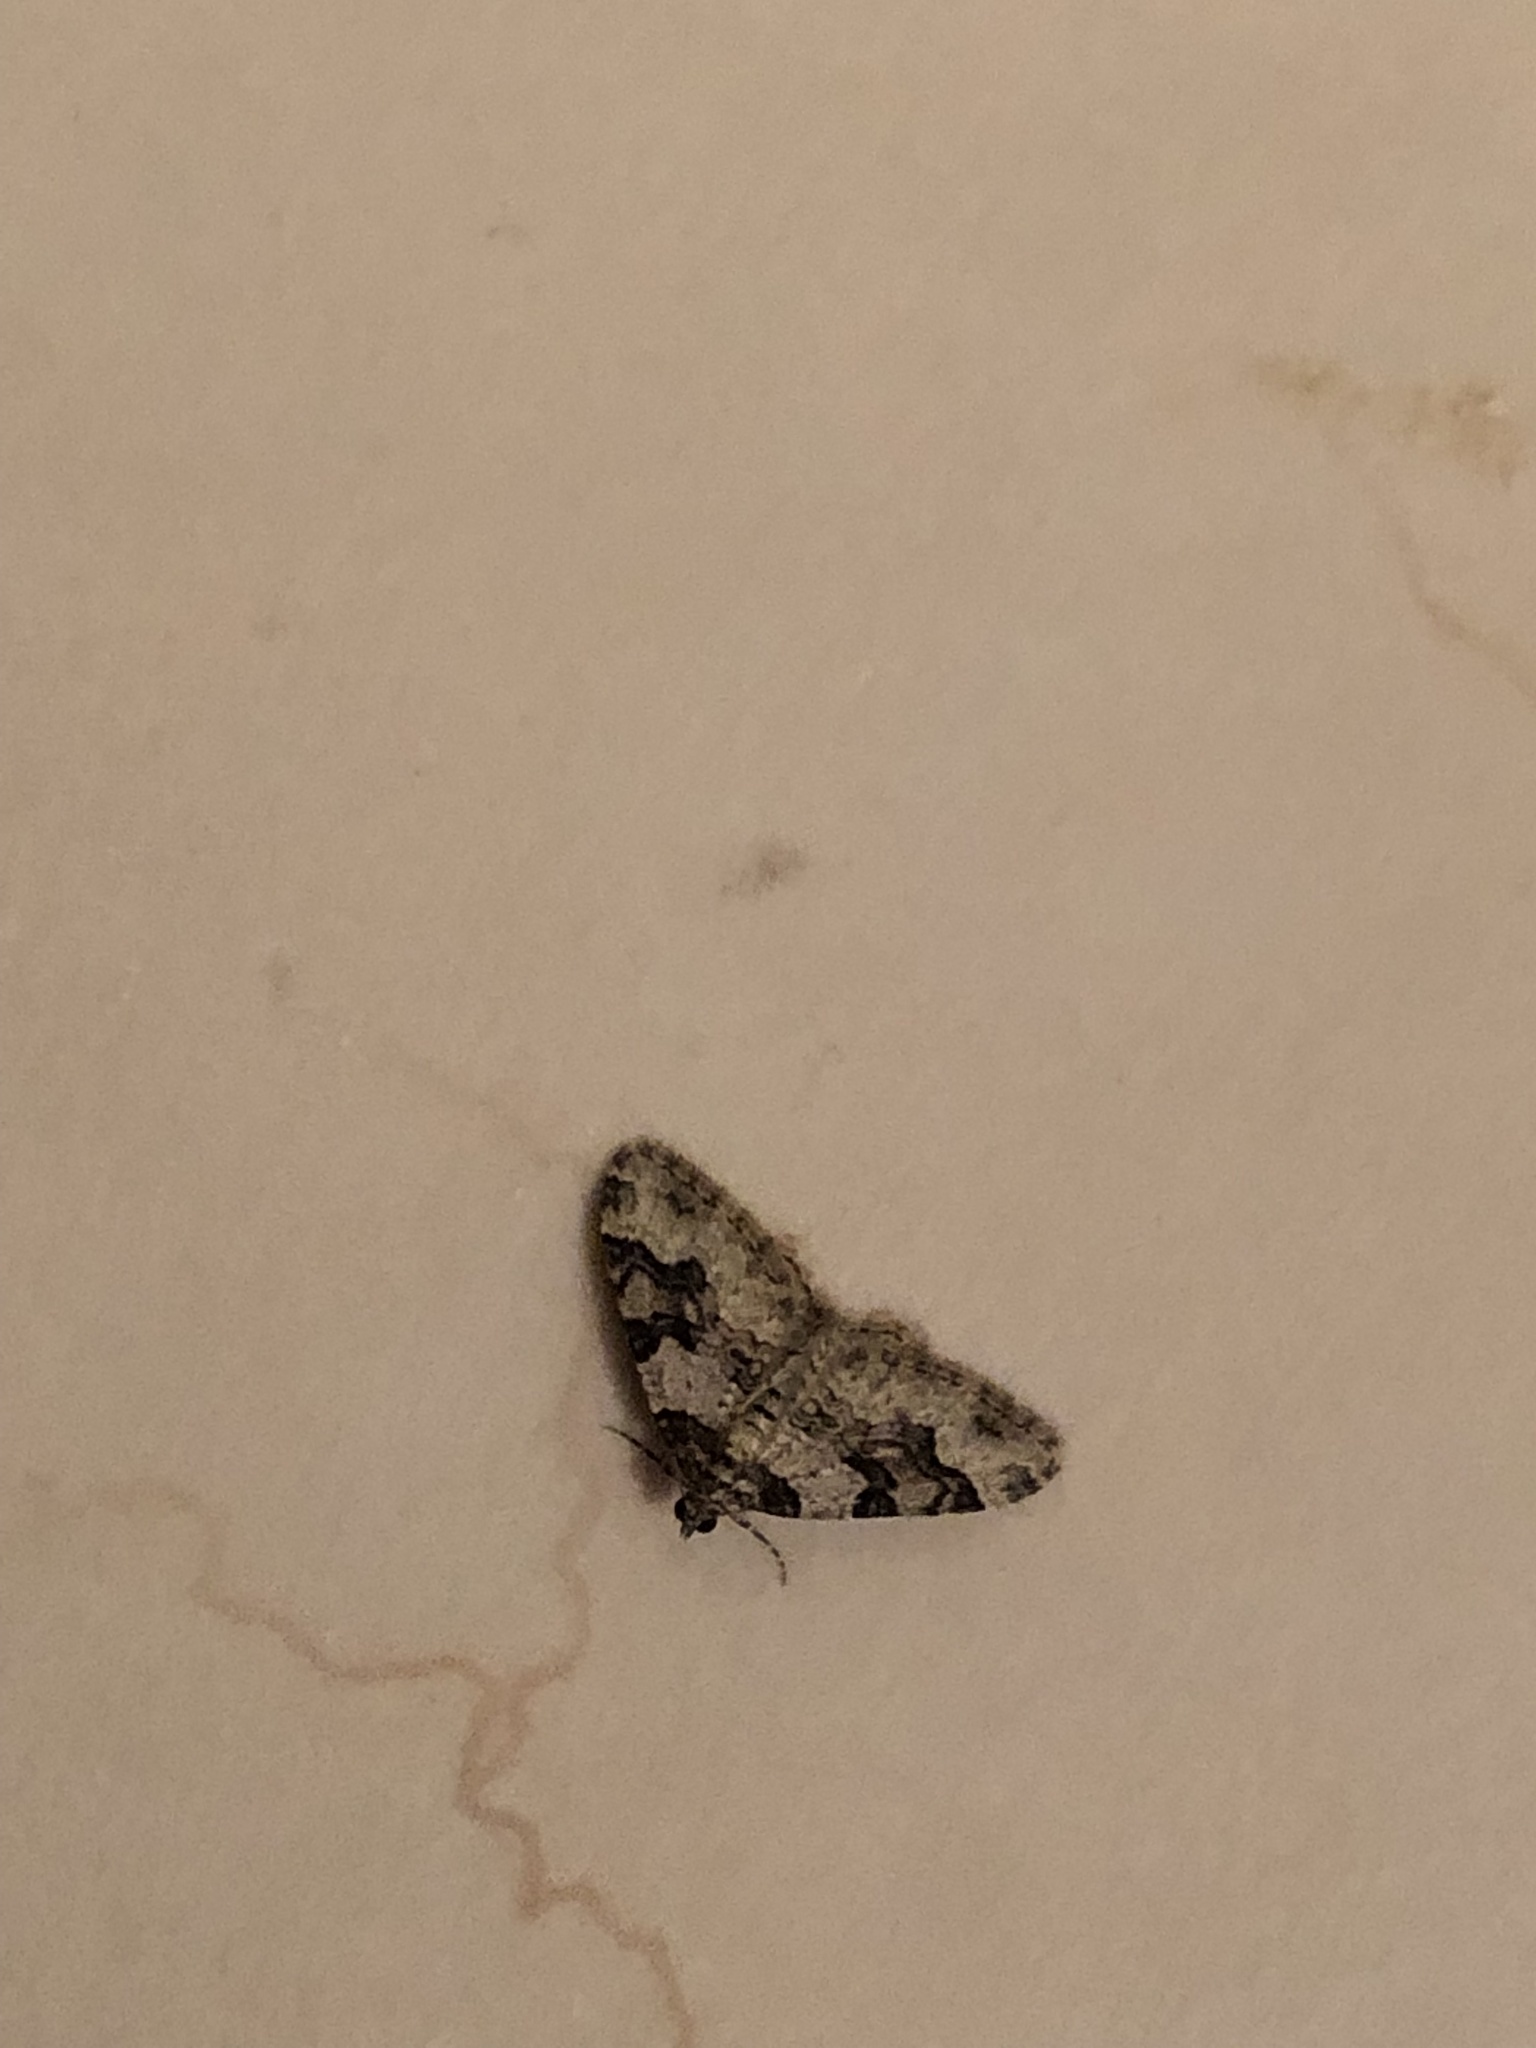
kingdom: Animalia
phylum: Arthropoda
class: Insecta
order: Lepidoptera
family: Geometridae
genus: Xanthorhoe
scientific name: Xanthorhoe fluctuata
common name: Garden carpet
